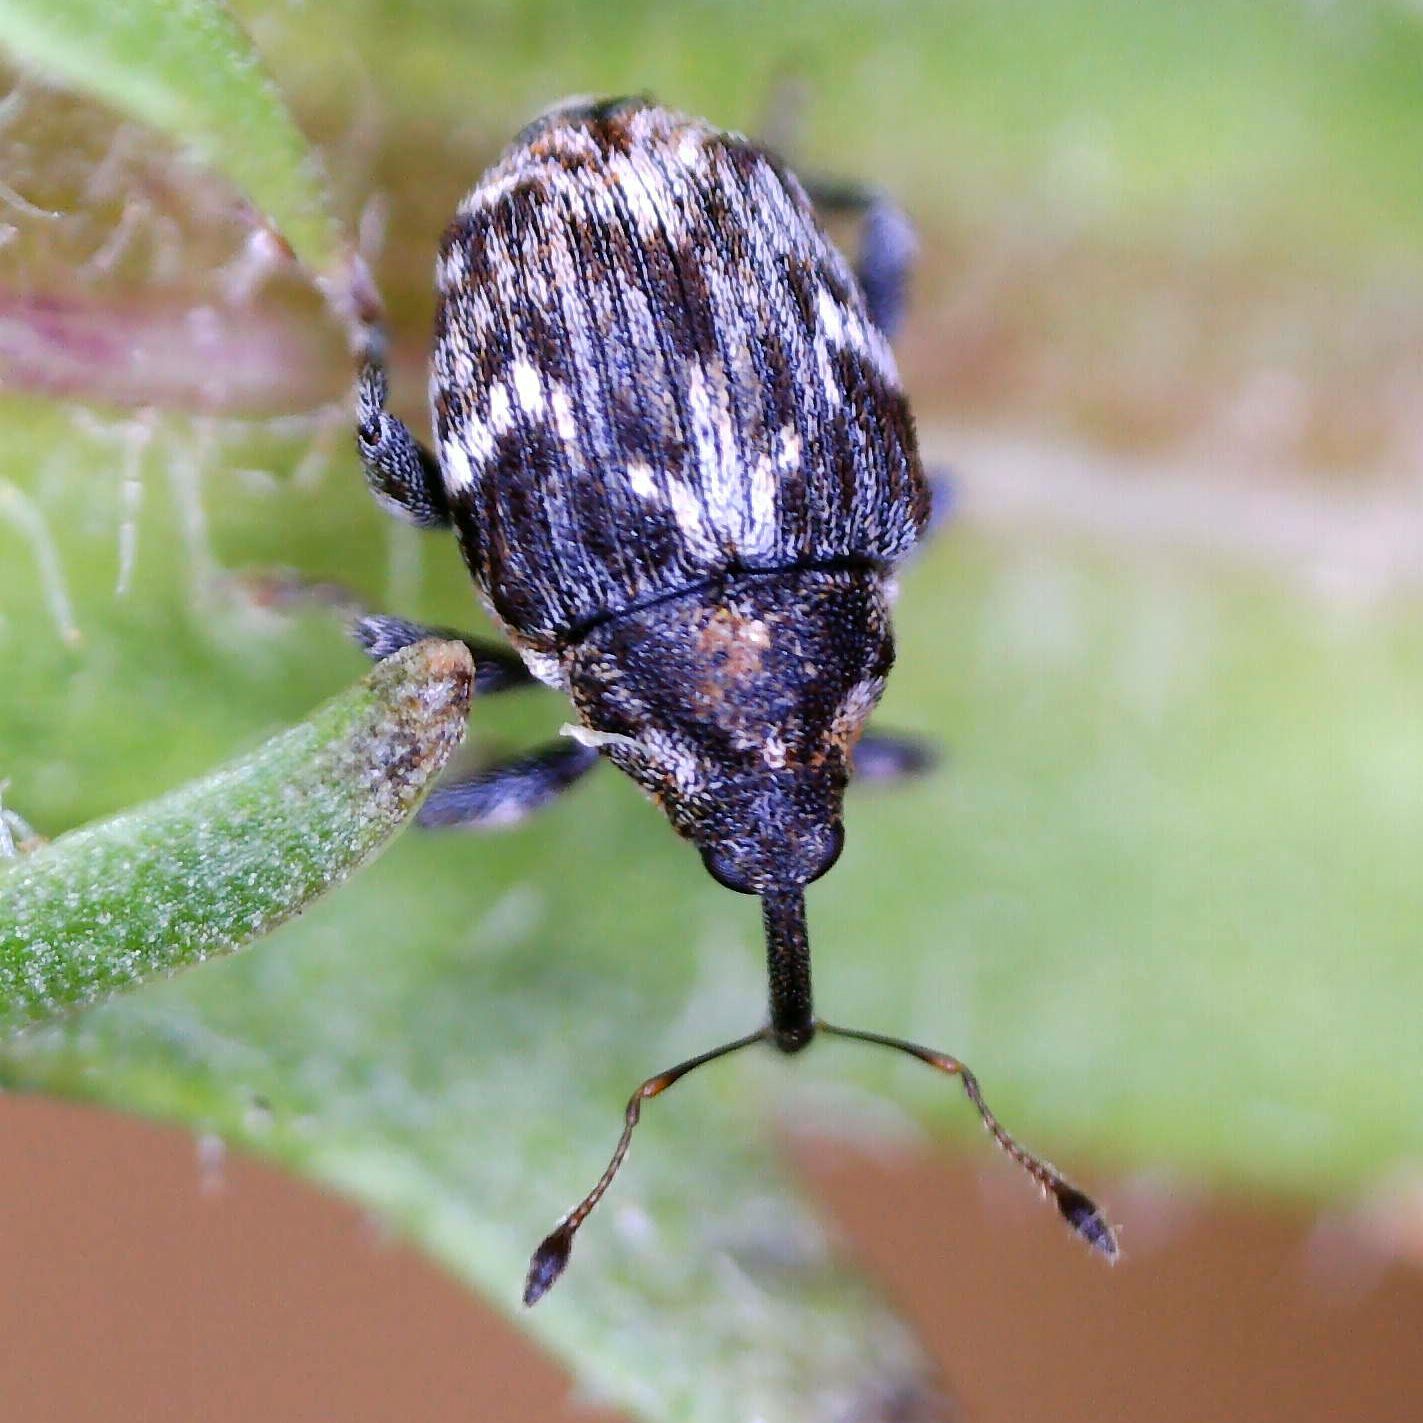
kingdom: Animalia
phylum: Arthropoda
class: Insecta
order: Coleoptera
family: Curculionidae
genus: Microplontus
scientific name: Microplontus campestris
